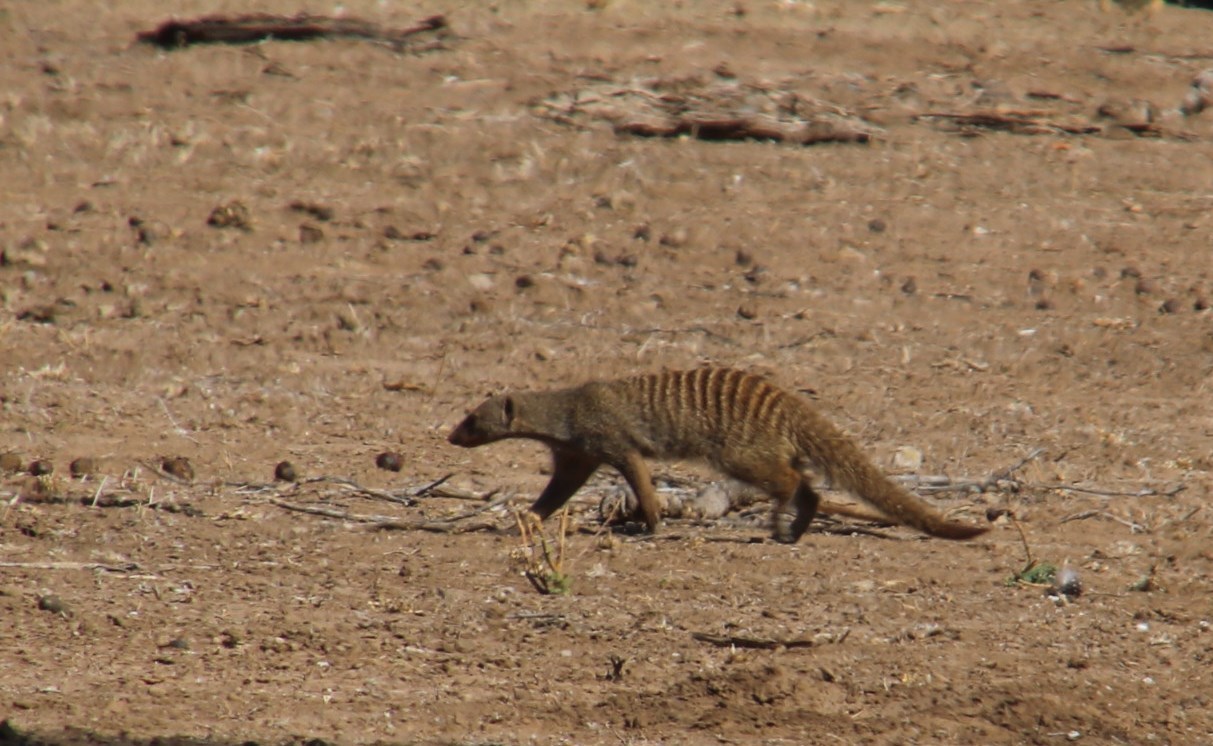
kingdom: Animalia
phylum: Chordata
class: Mammalia
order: Carnivora
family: Herpestidae
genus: Mungos
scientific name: Mungos mungo
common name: Banded mongoose
